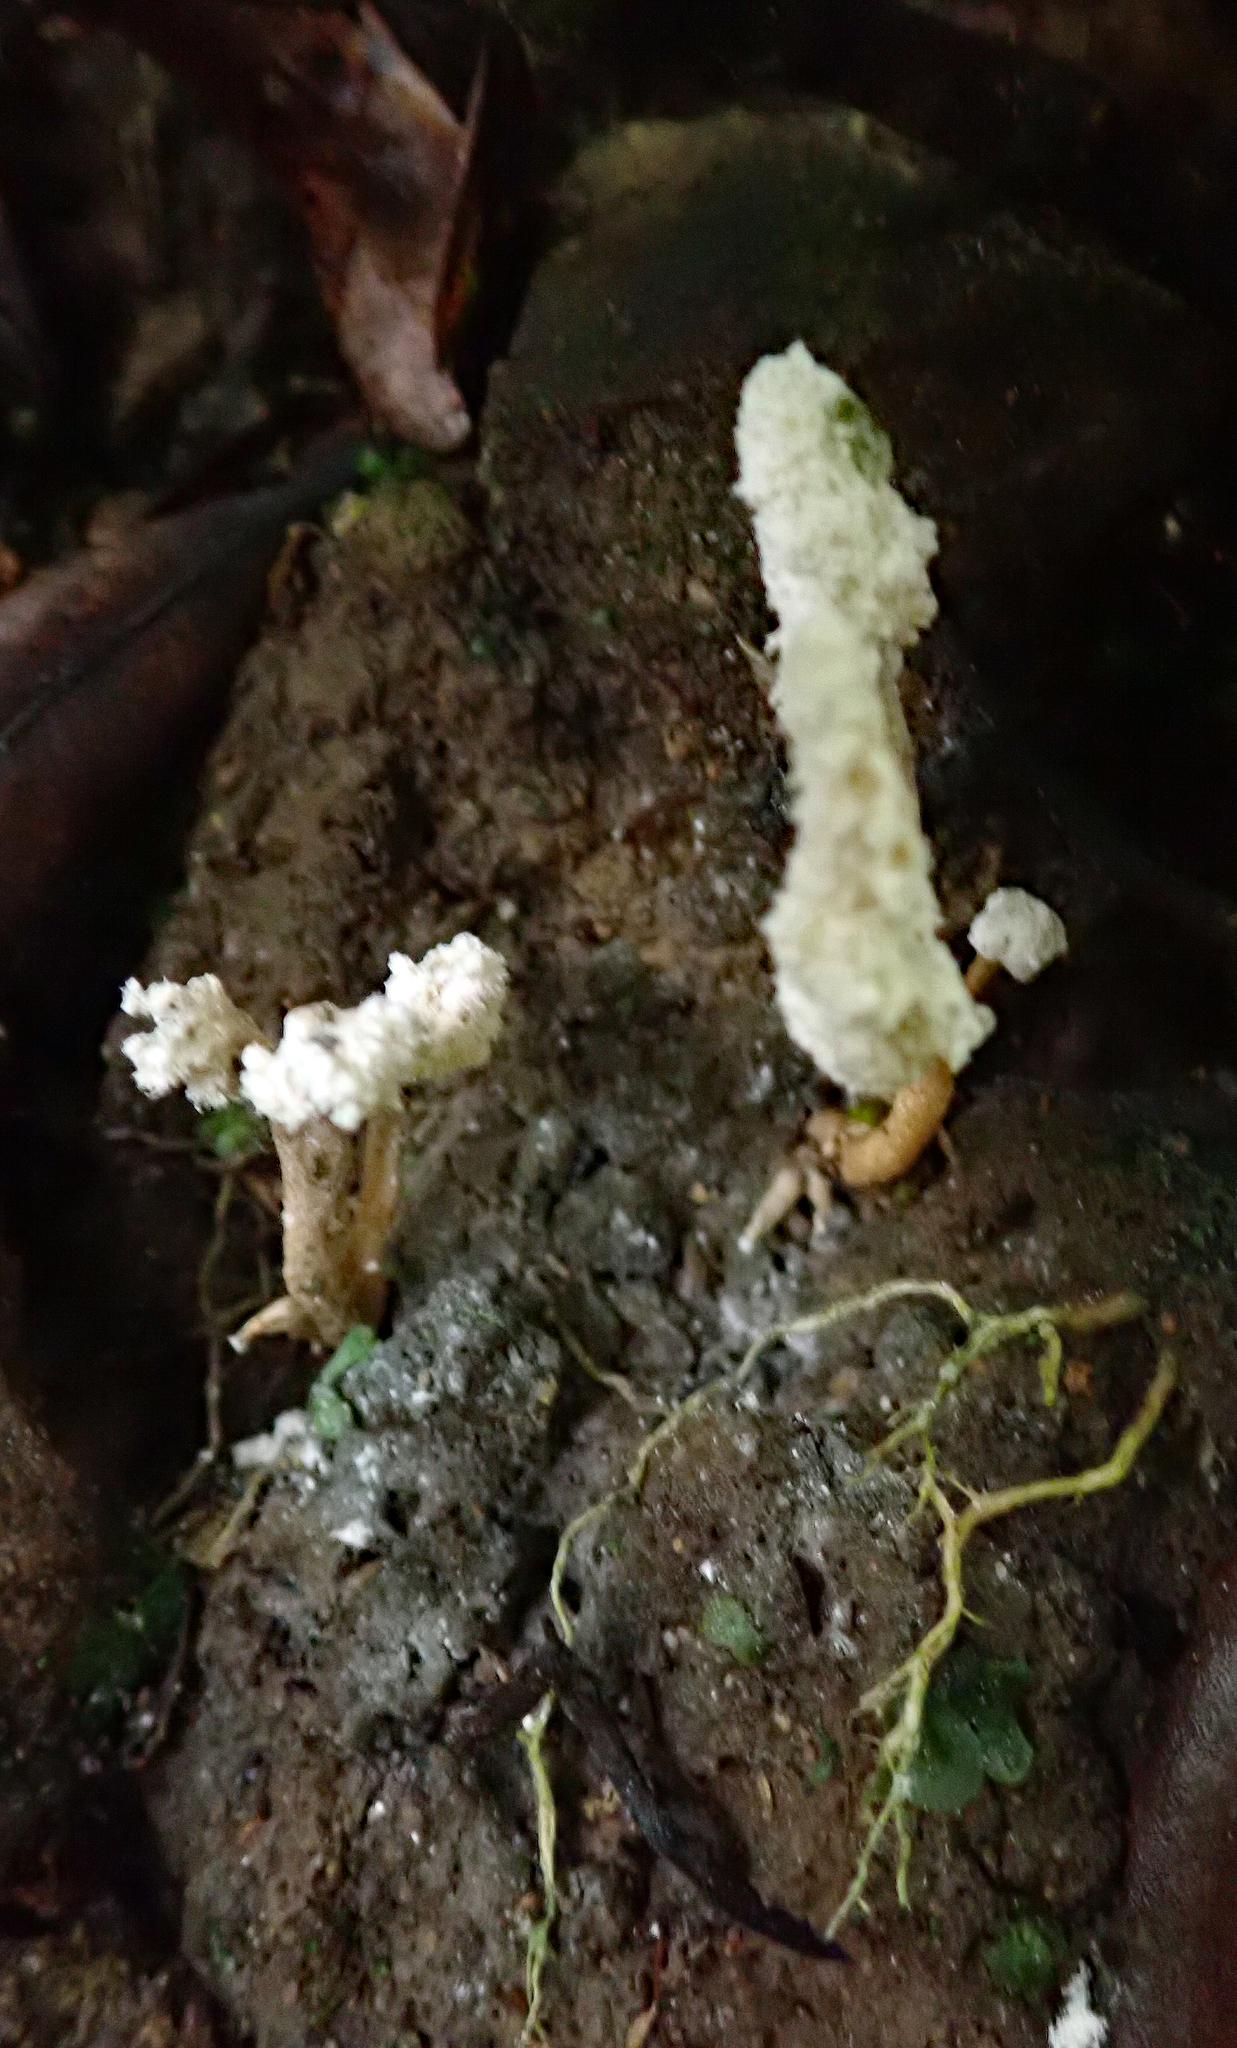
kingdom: Fungi
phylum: Ascomycota
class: Sordariomycetes
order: Hypocreales
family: Cordycipitaceae
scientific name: Cordycipitaceae
